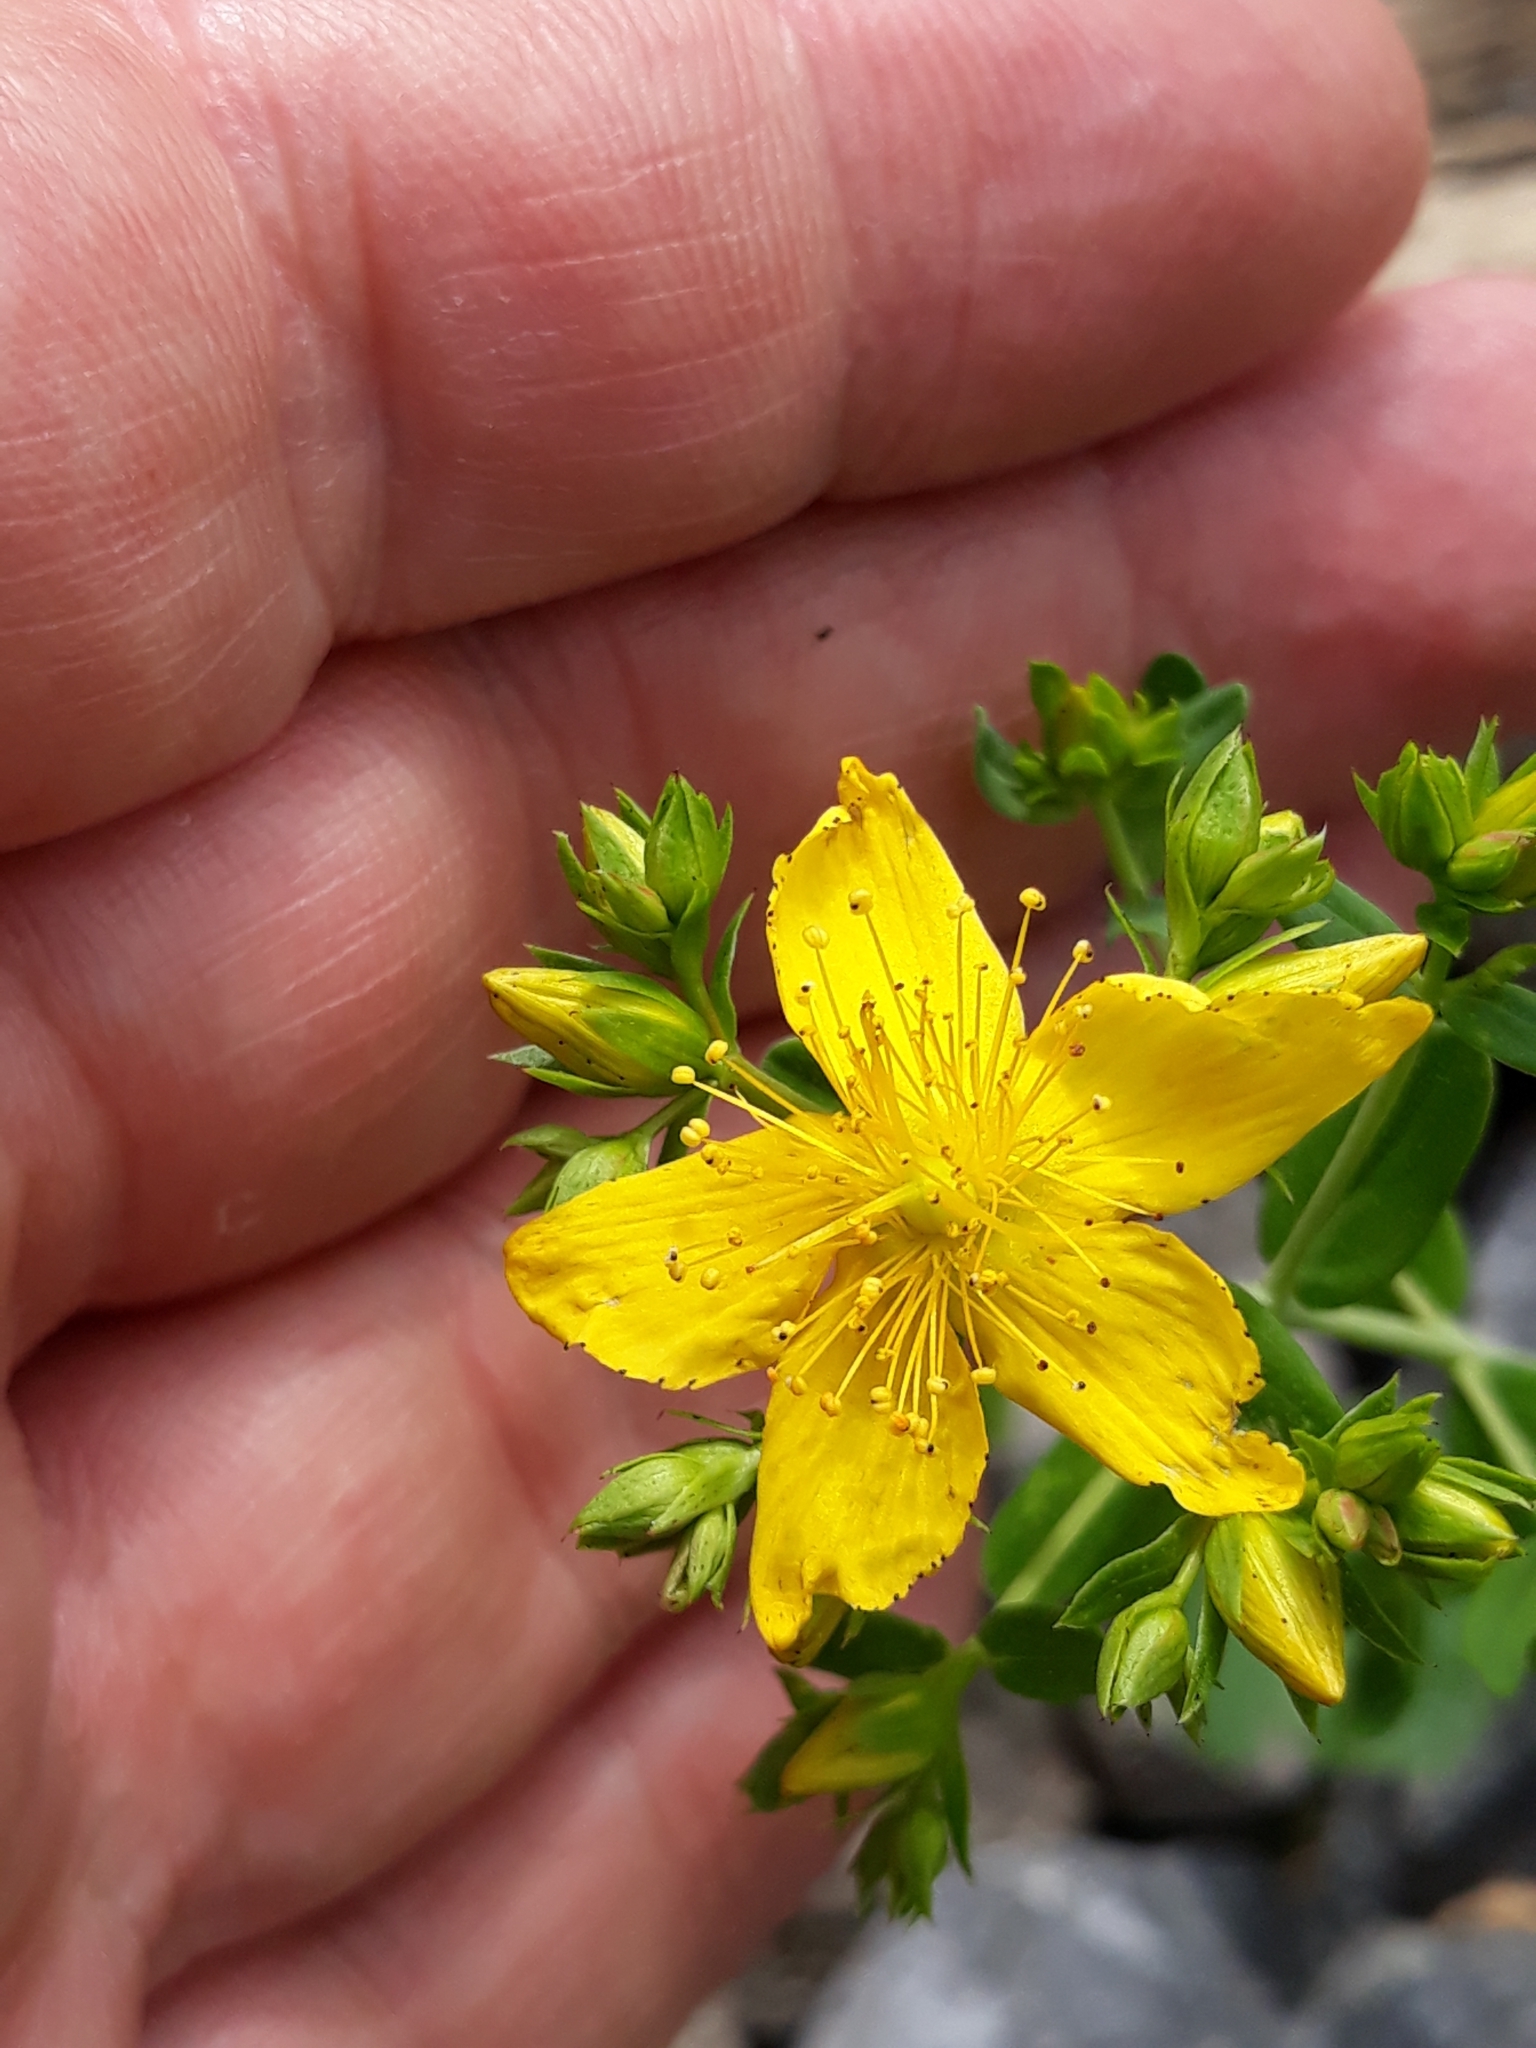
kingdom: Plantae
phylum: Tracheophyta
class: Magnoliopsida
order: Malpighiales
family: Hypericaceae
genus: Hypericum
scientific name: Hypericum perforatum
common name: Common st. johnswort
